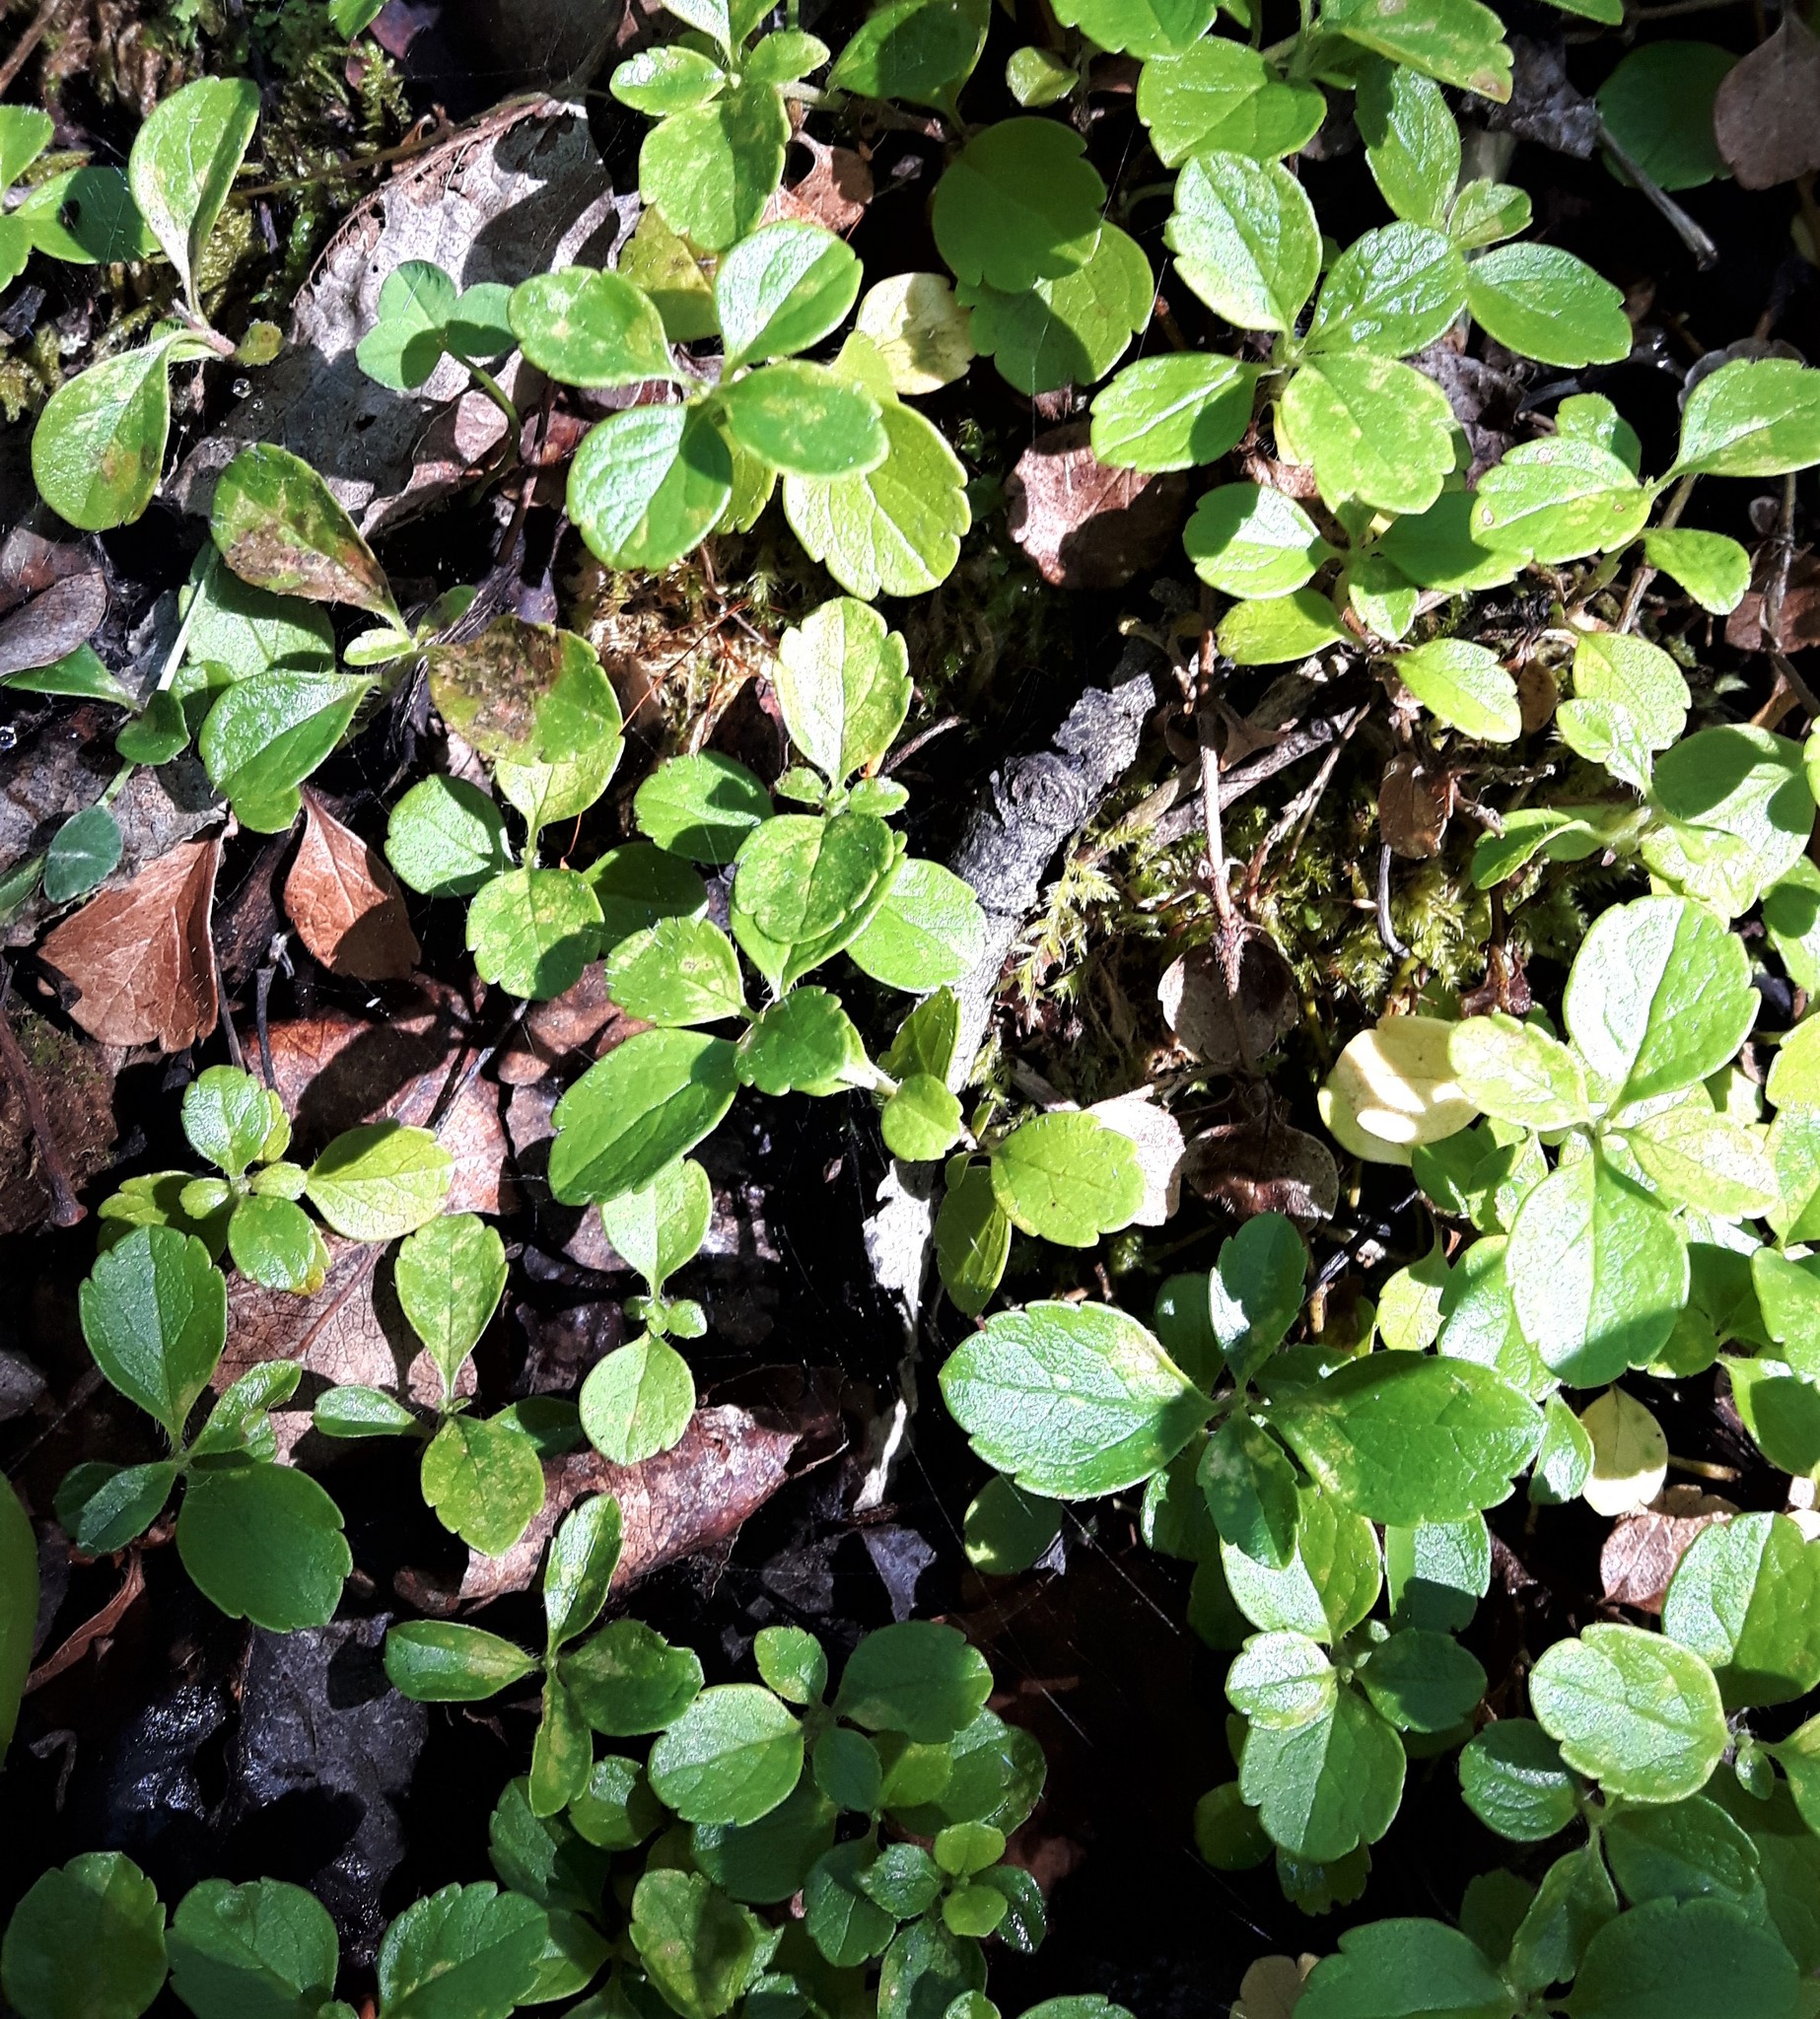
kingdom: Plantae
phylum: Tracheophyta
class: Magnoliopsida
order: Dipsacales
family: Caprifoliaceae
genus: Linnaea
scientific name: Linnaea borealis
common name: Twinflower
